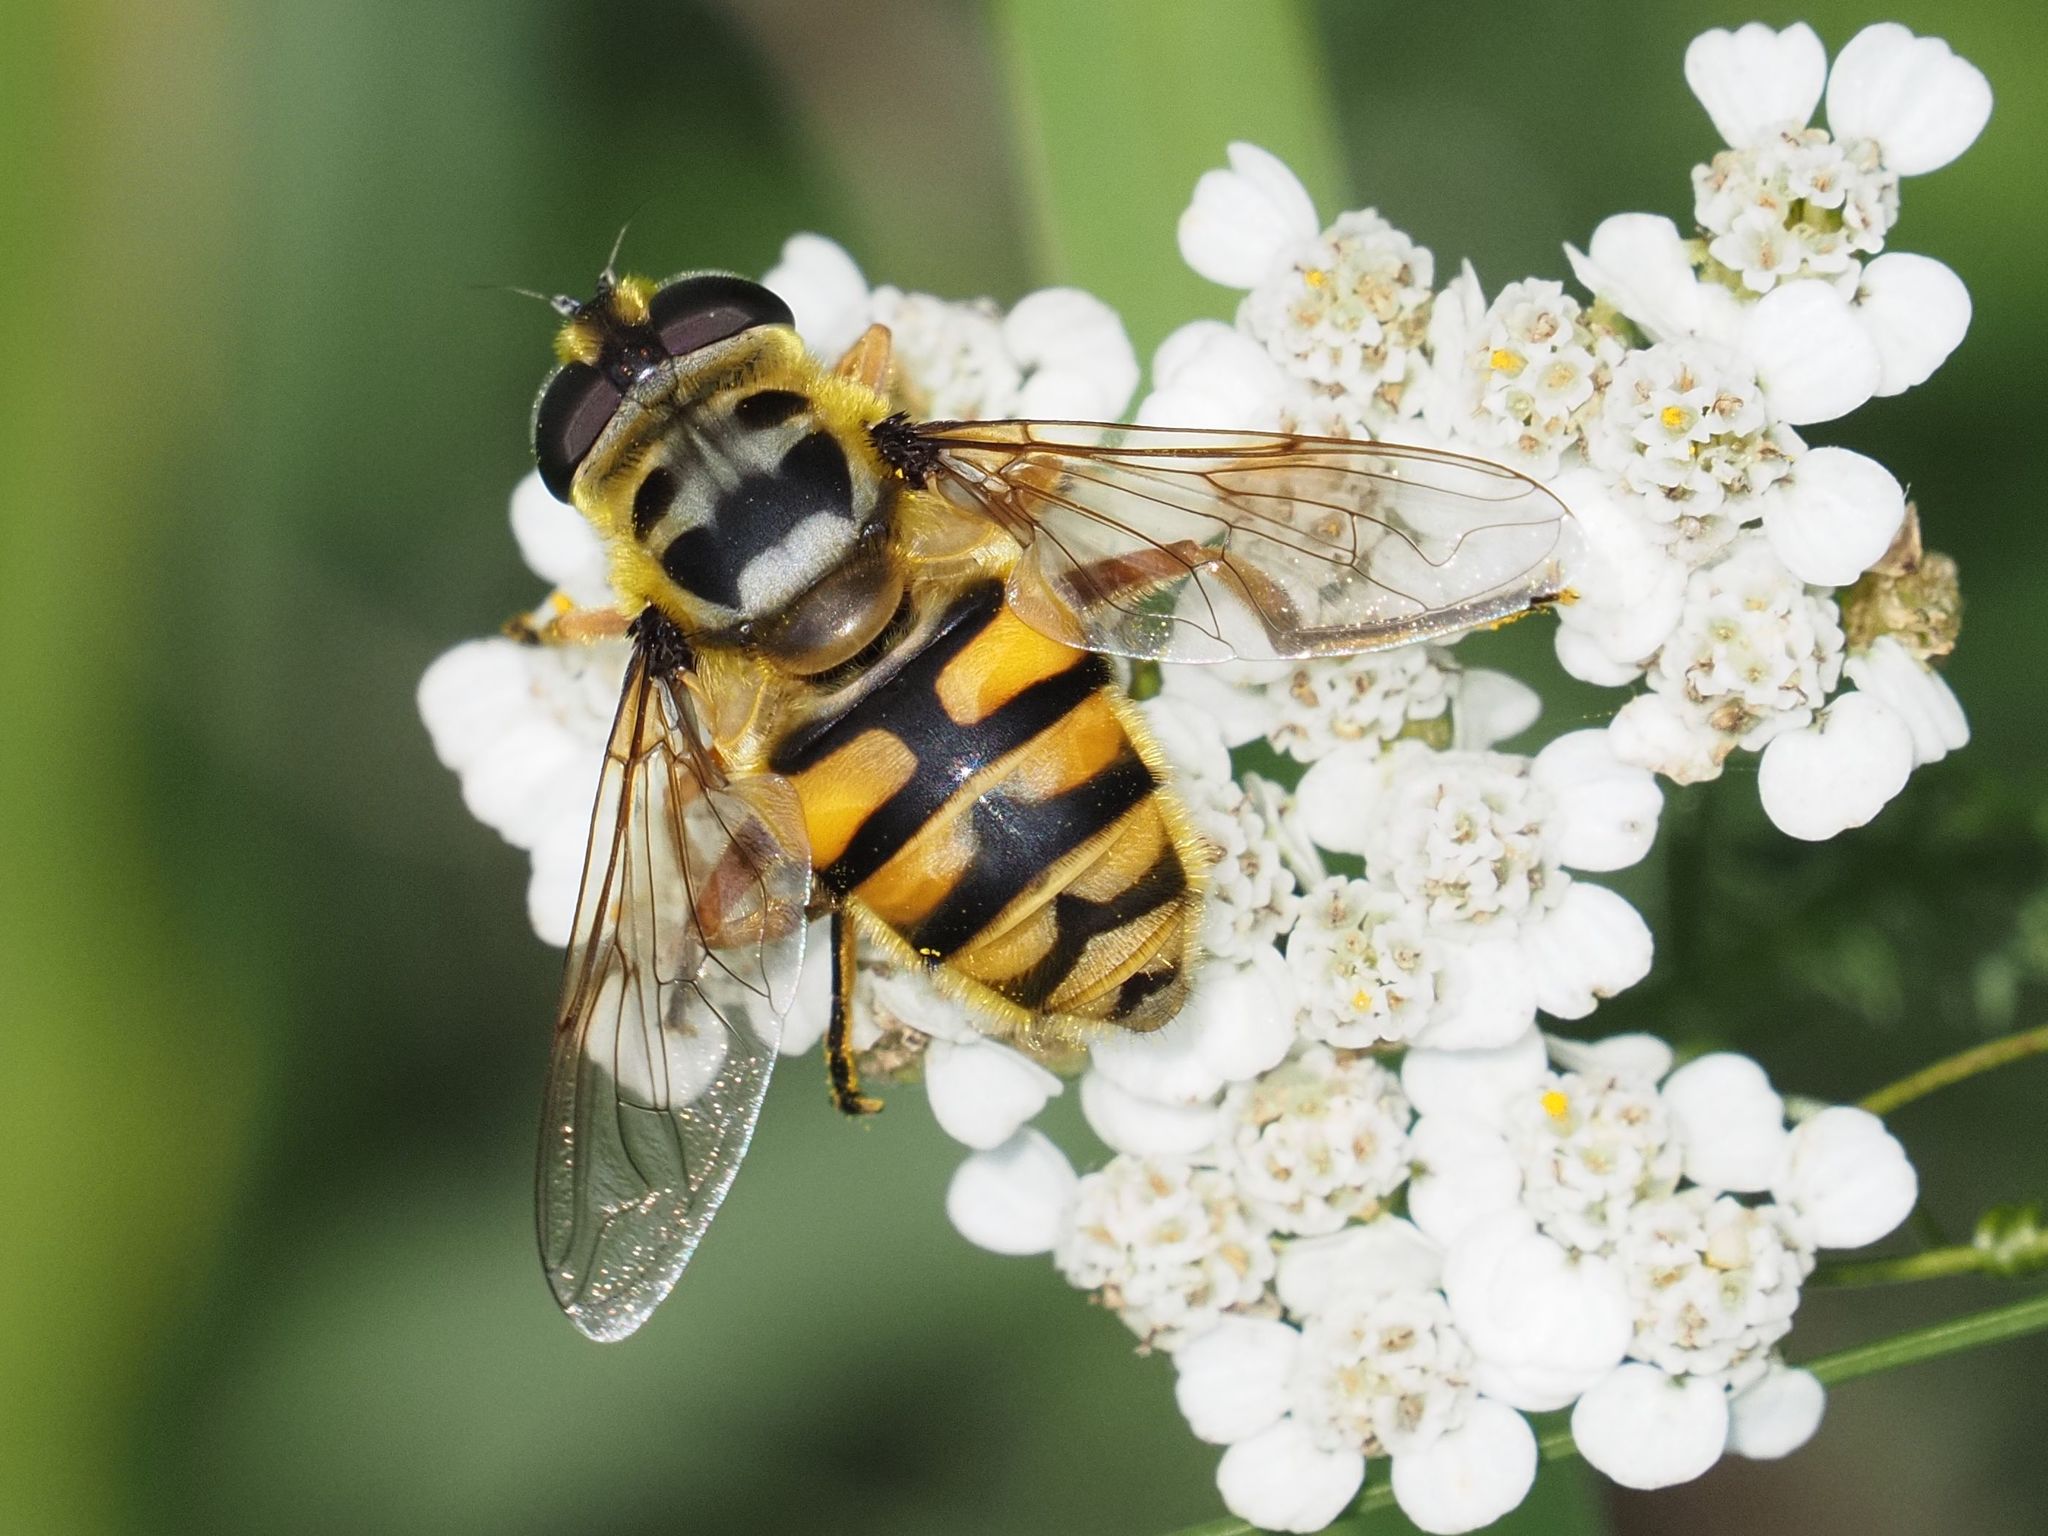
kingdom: Animalia
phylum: Arthropoda
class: Insecta
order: Diptera
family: Syrphidae
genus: Myathropa
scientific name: Myathropa florea
